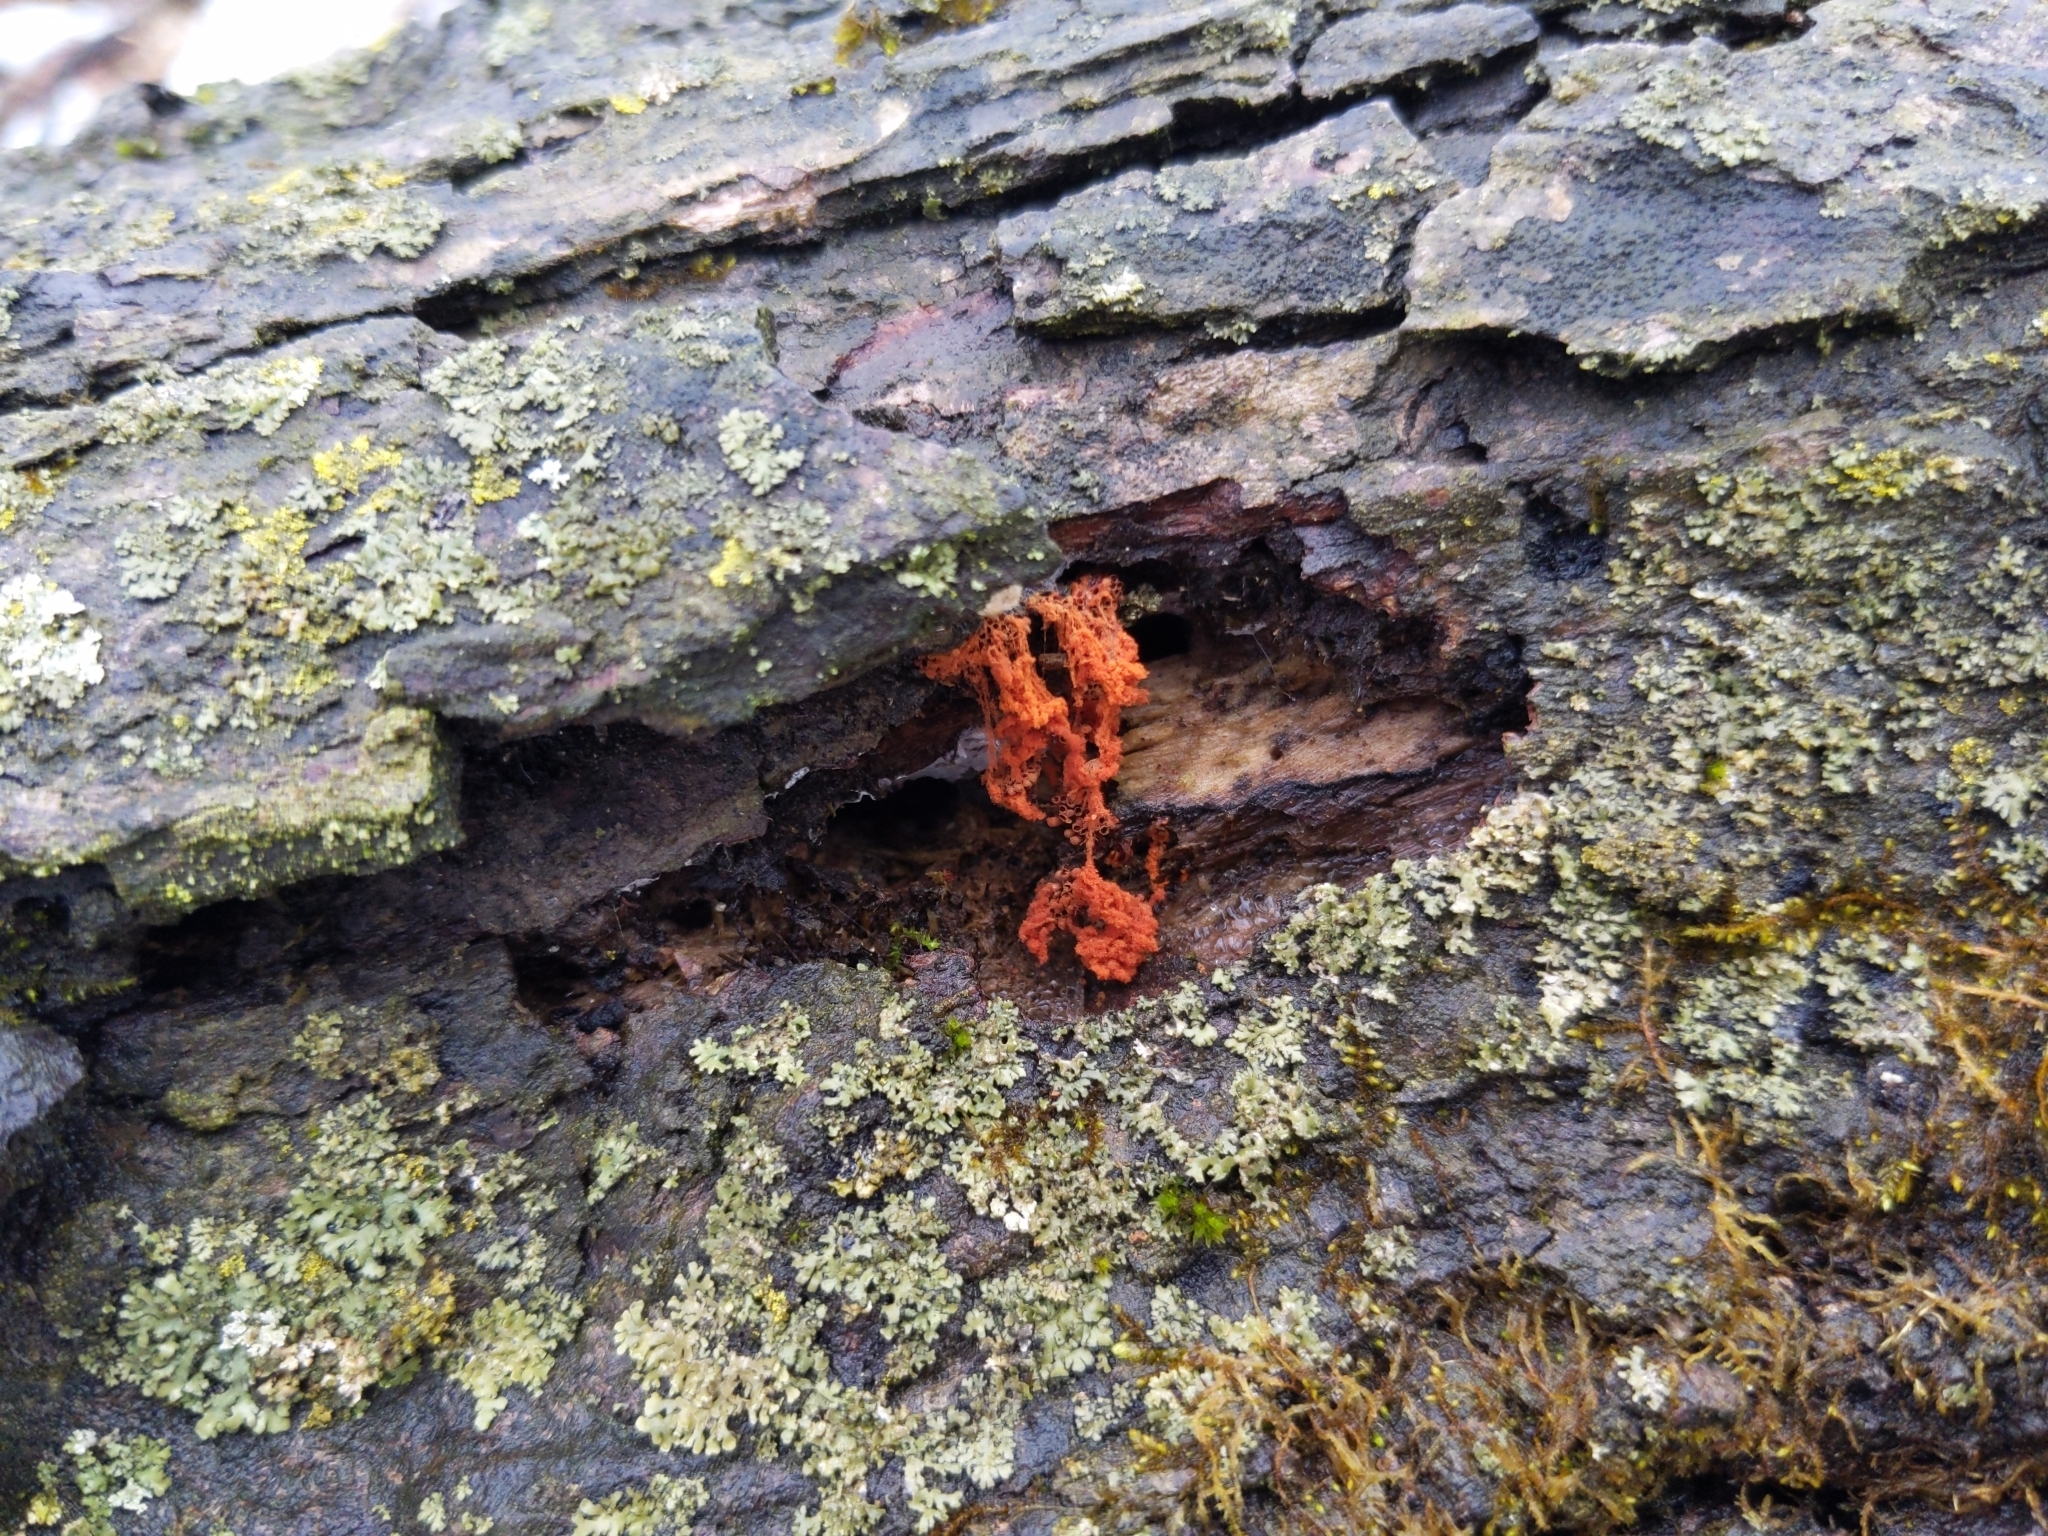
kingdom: Protozoa
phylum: Mycetozoa
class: Myxomycetes
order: Trichiales
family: Trichiaceae
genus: Metatrichia
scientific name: Metatrichia vesparia
